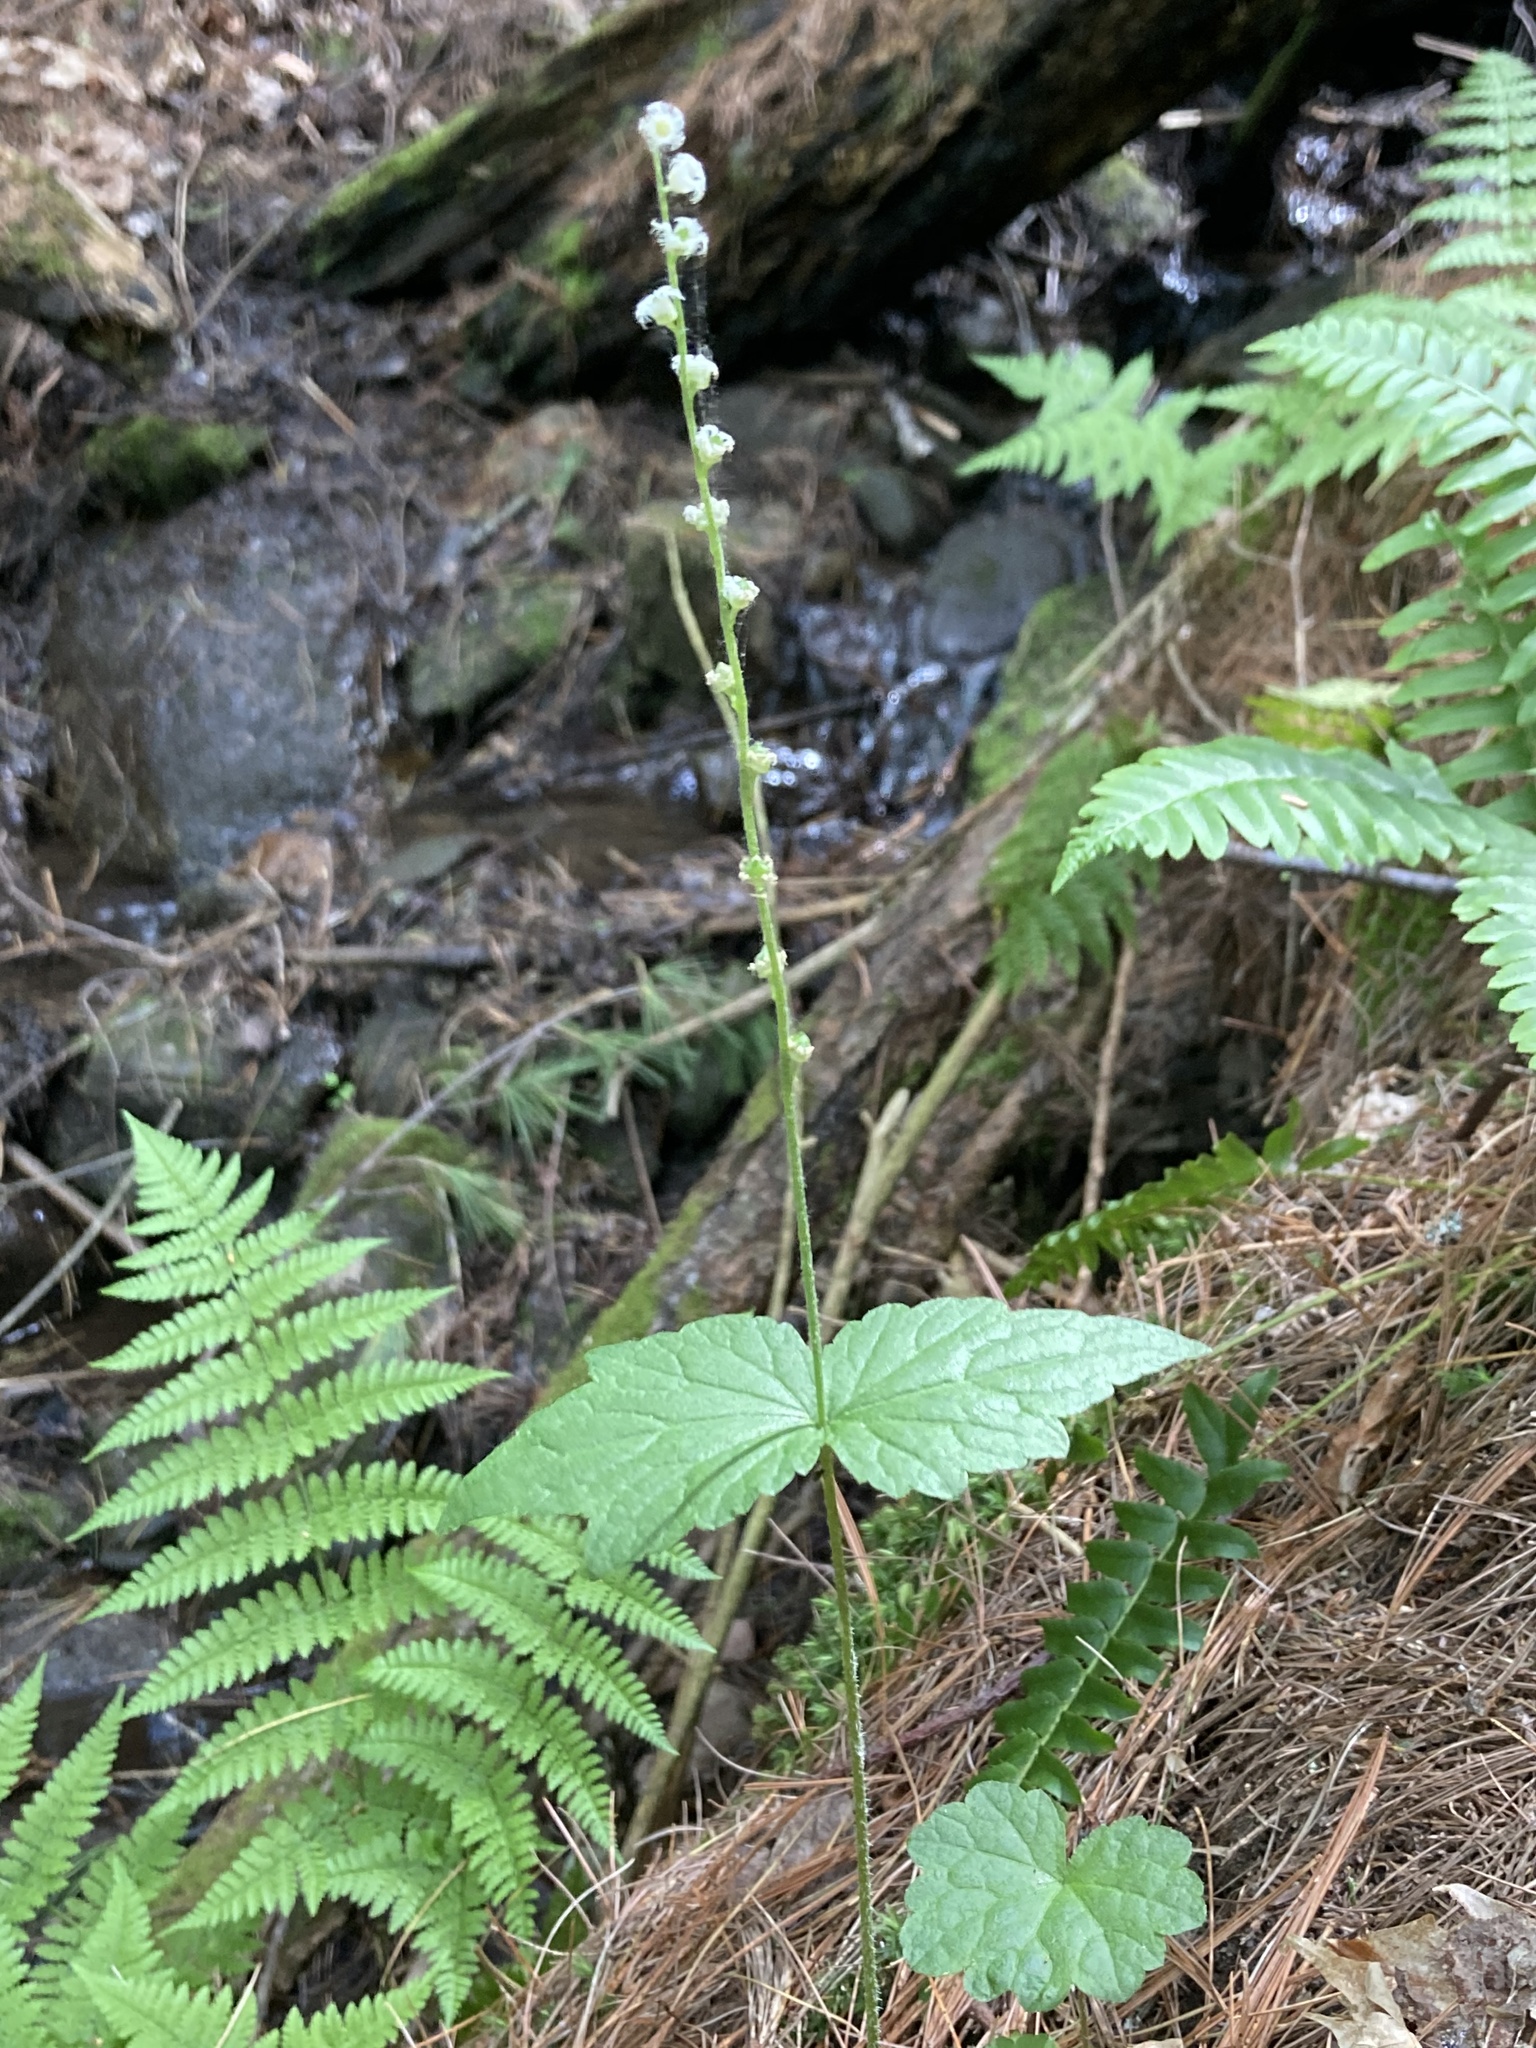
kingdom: Plantae
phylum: Tracheophyta
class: Magnoliopsida
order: Saxifragales
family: Saxifragaceae
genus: Mitella
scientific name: Mitella diphylla
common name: Coolwort
